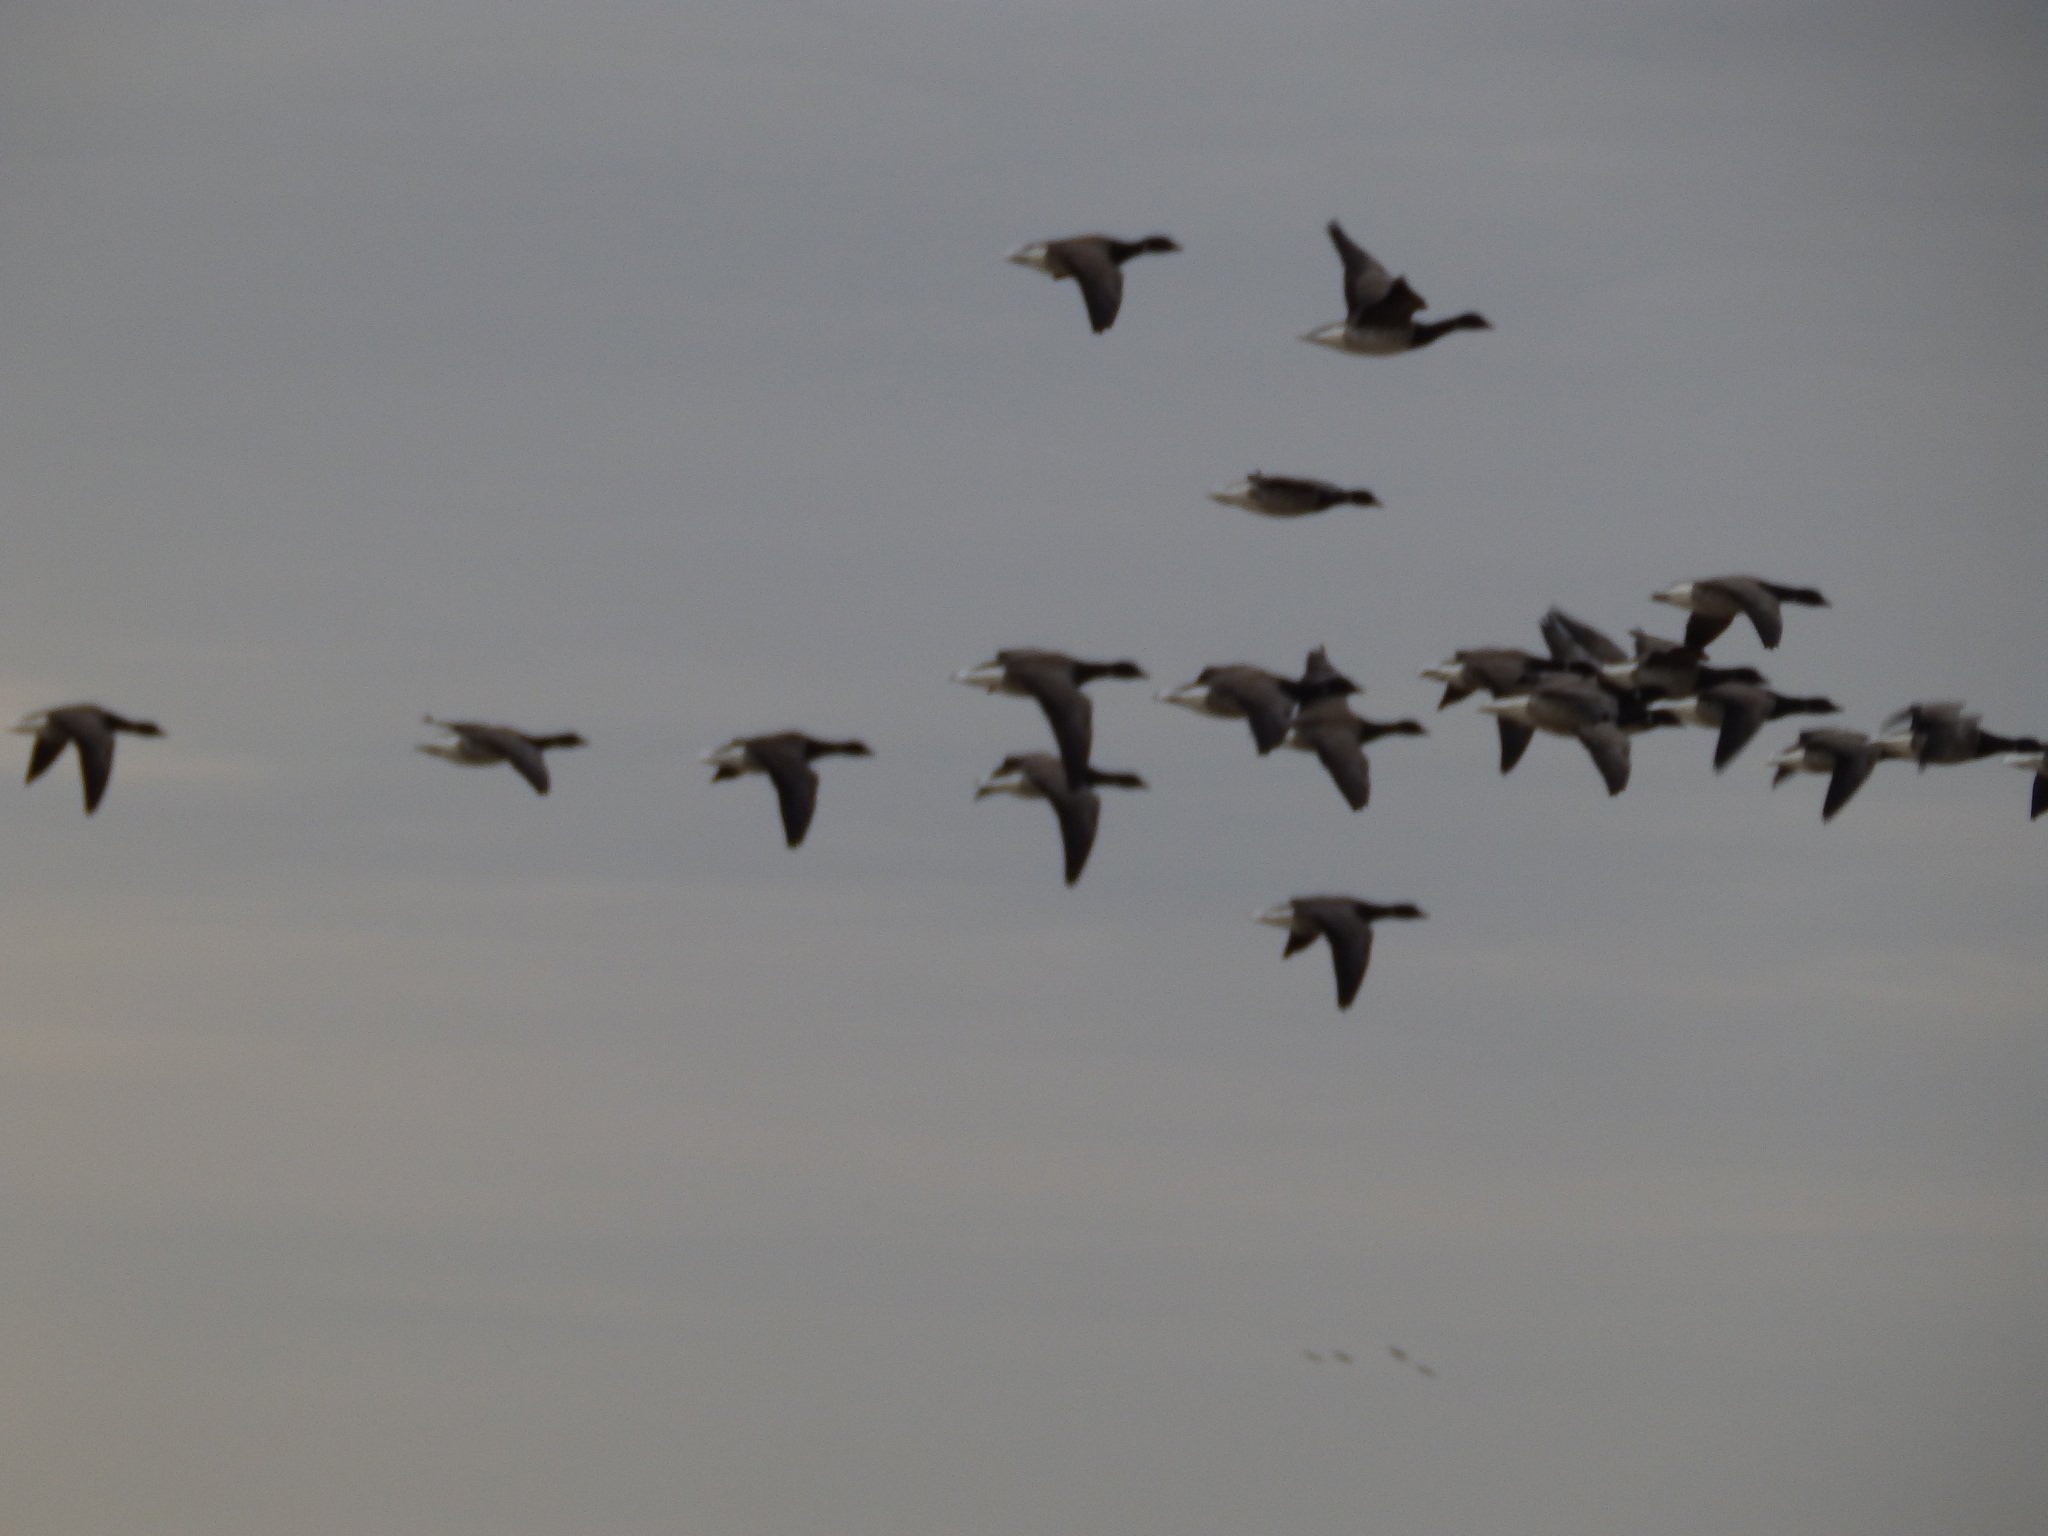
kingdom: Animalia
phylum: Chordata
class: Aves
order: Anseriformes
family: Anatidae
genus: Branta
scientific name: Branta bernicla
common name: Brant goose
